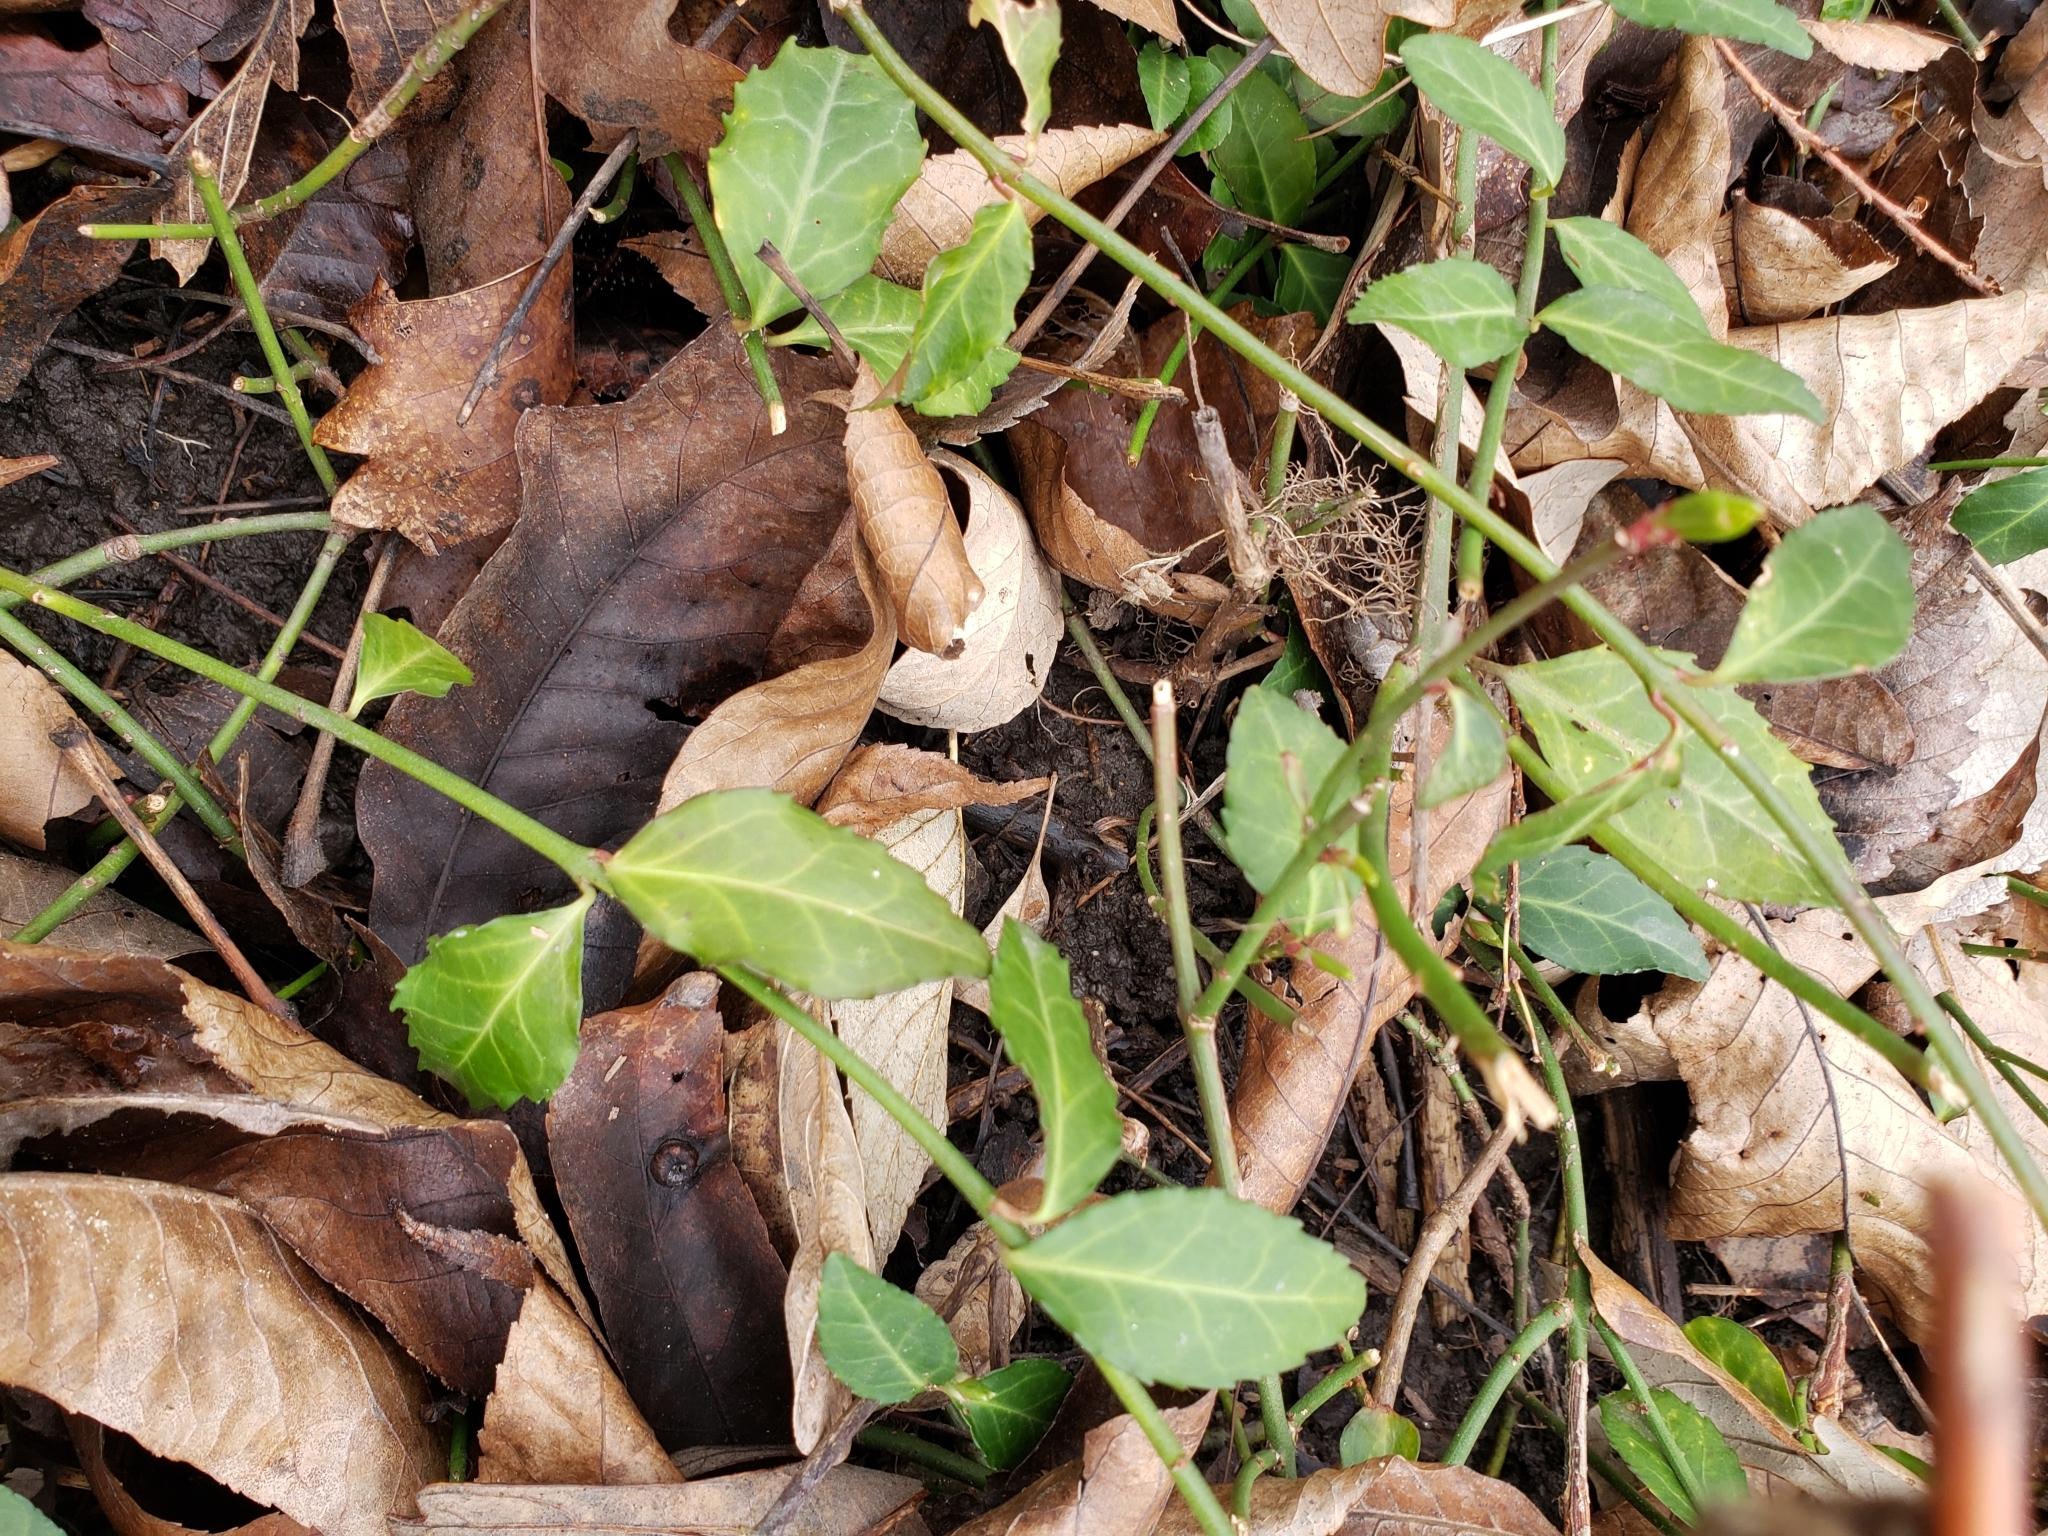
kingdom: Plantae
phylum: Tracheophyta
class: Magnoliopsida
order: Celastrales
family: Celastraceae
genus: Euonymus
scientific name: Euonymus fortunei
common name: Climbing euonymus
